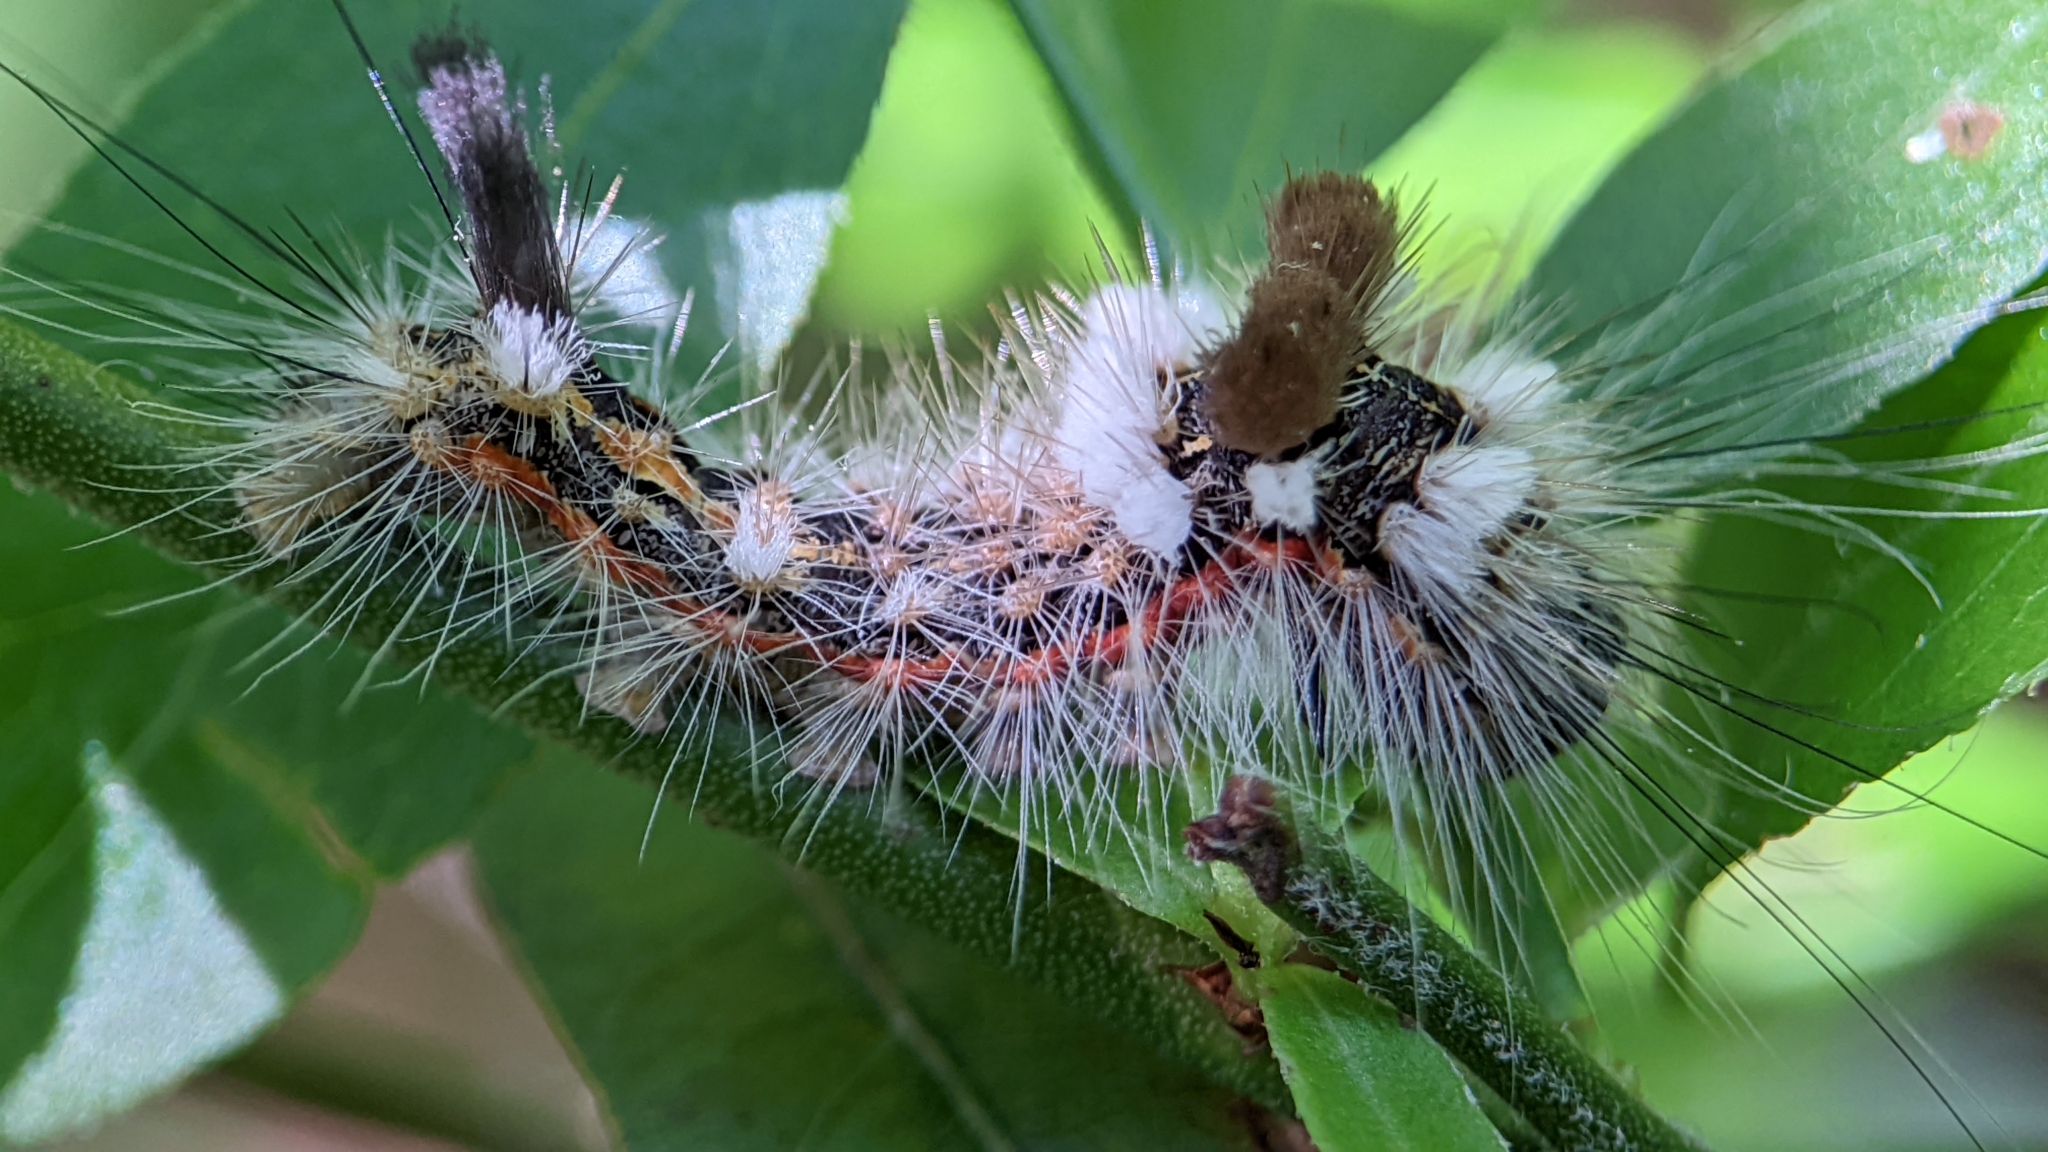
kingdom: Animalia
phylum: Arthropoda
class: Insecta
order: Lepidoptera
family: Noctuidae
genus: Acronicta
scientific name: Acronicta impleta
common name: Powdered dagger
